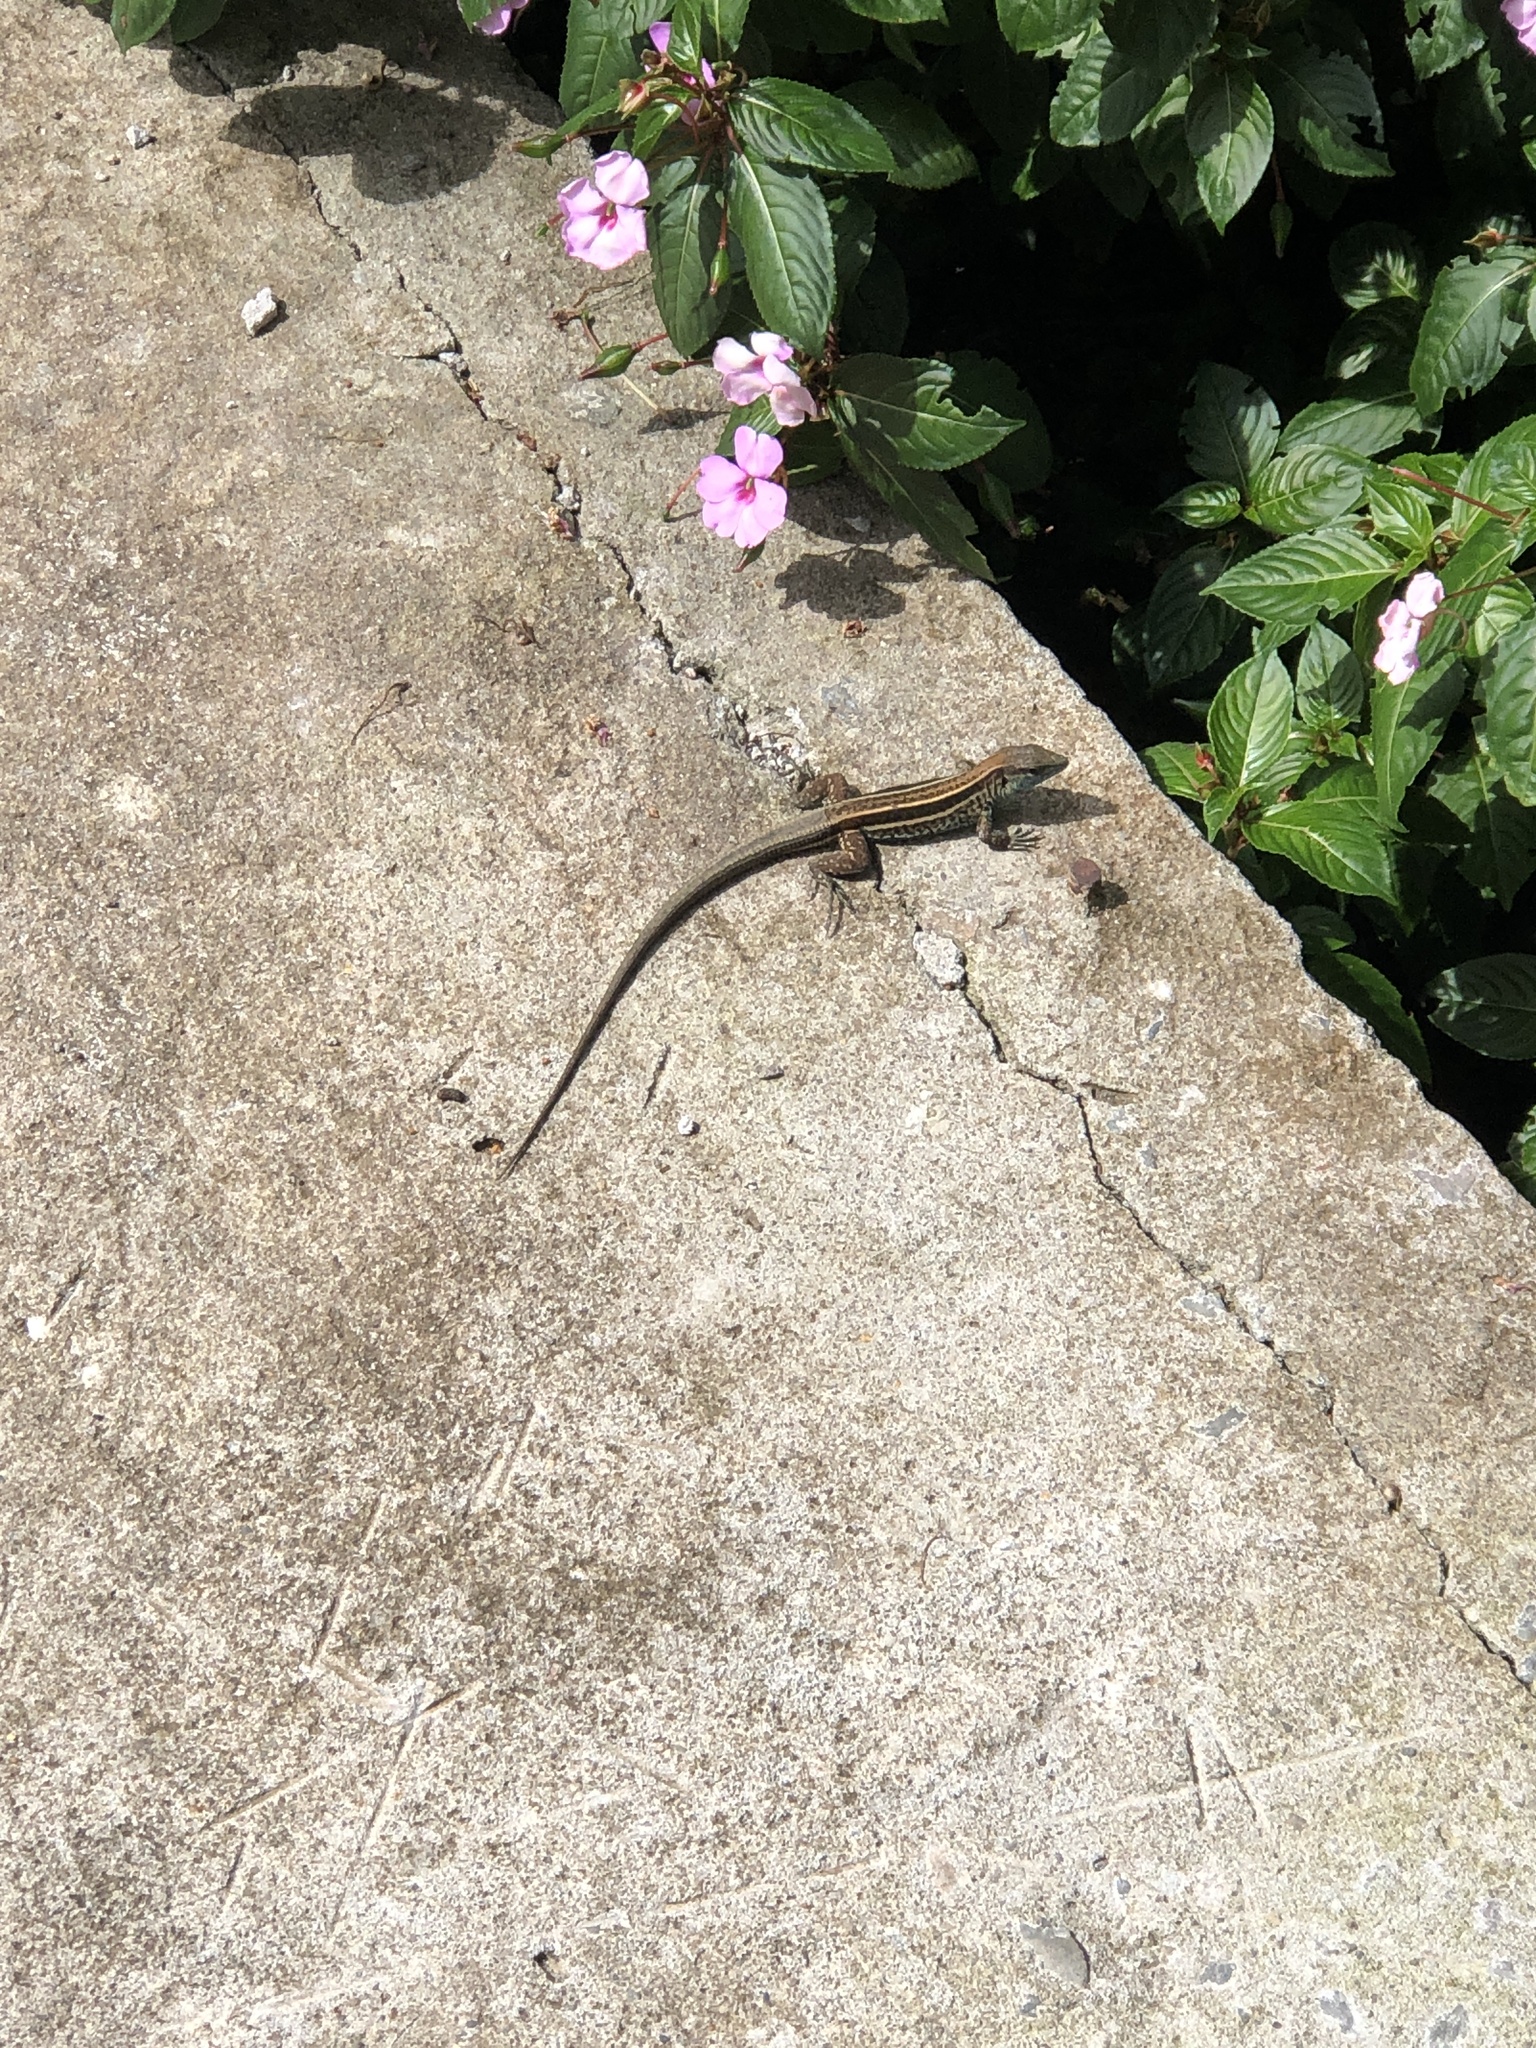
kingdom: Animalia
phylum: Chordata
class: Squamata
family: Teiidae
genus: Holcosus
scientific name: Holcosus quadrilineatus
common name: Four-lined ameiva
